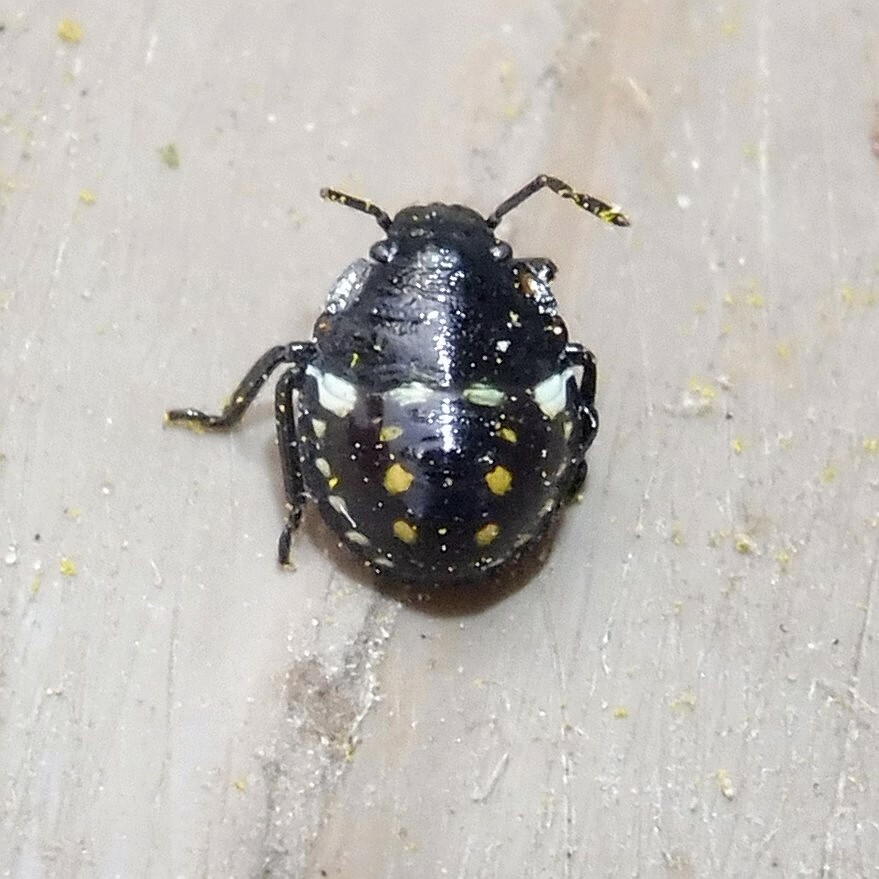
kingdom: Animalia
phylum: Arthropoda
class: Insecta
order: Hemiptera
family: Pentatomidae
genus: Nezara
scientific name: Nezara viridula
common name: Southern green stink bug
